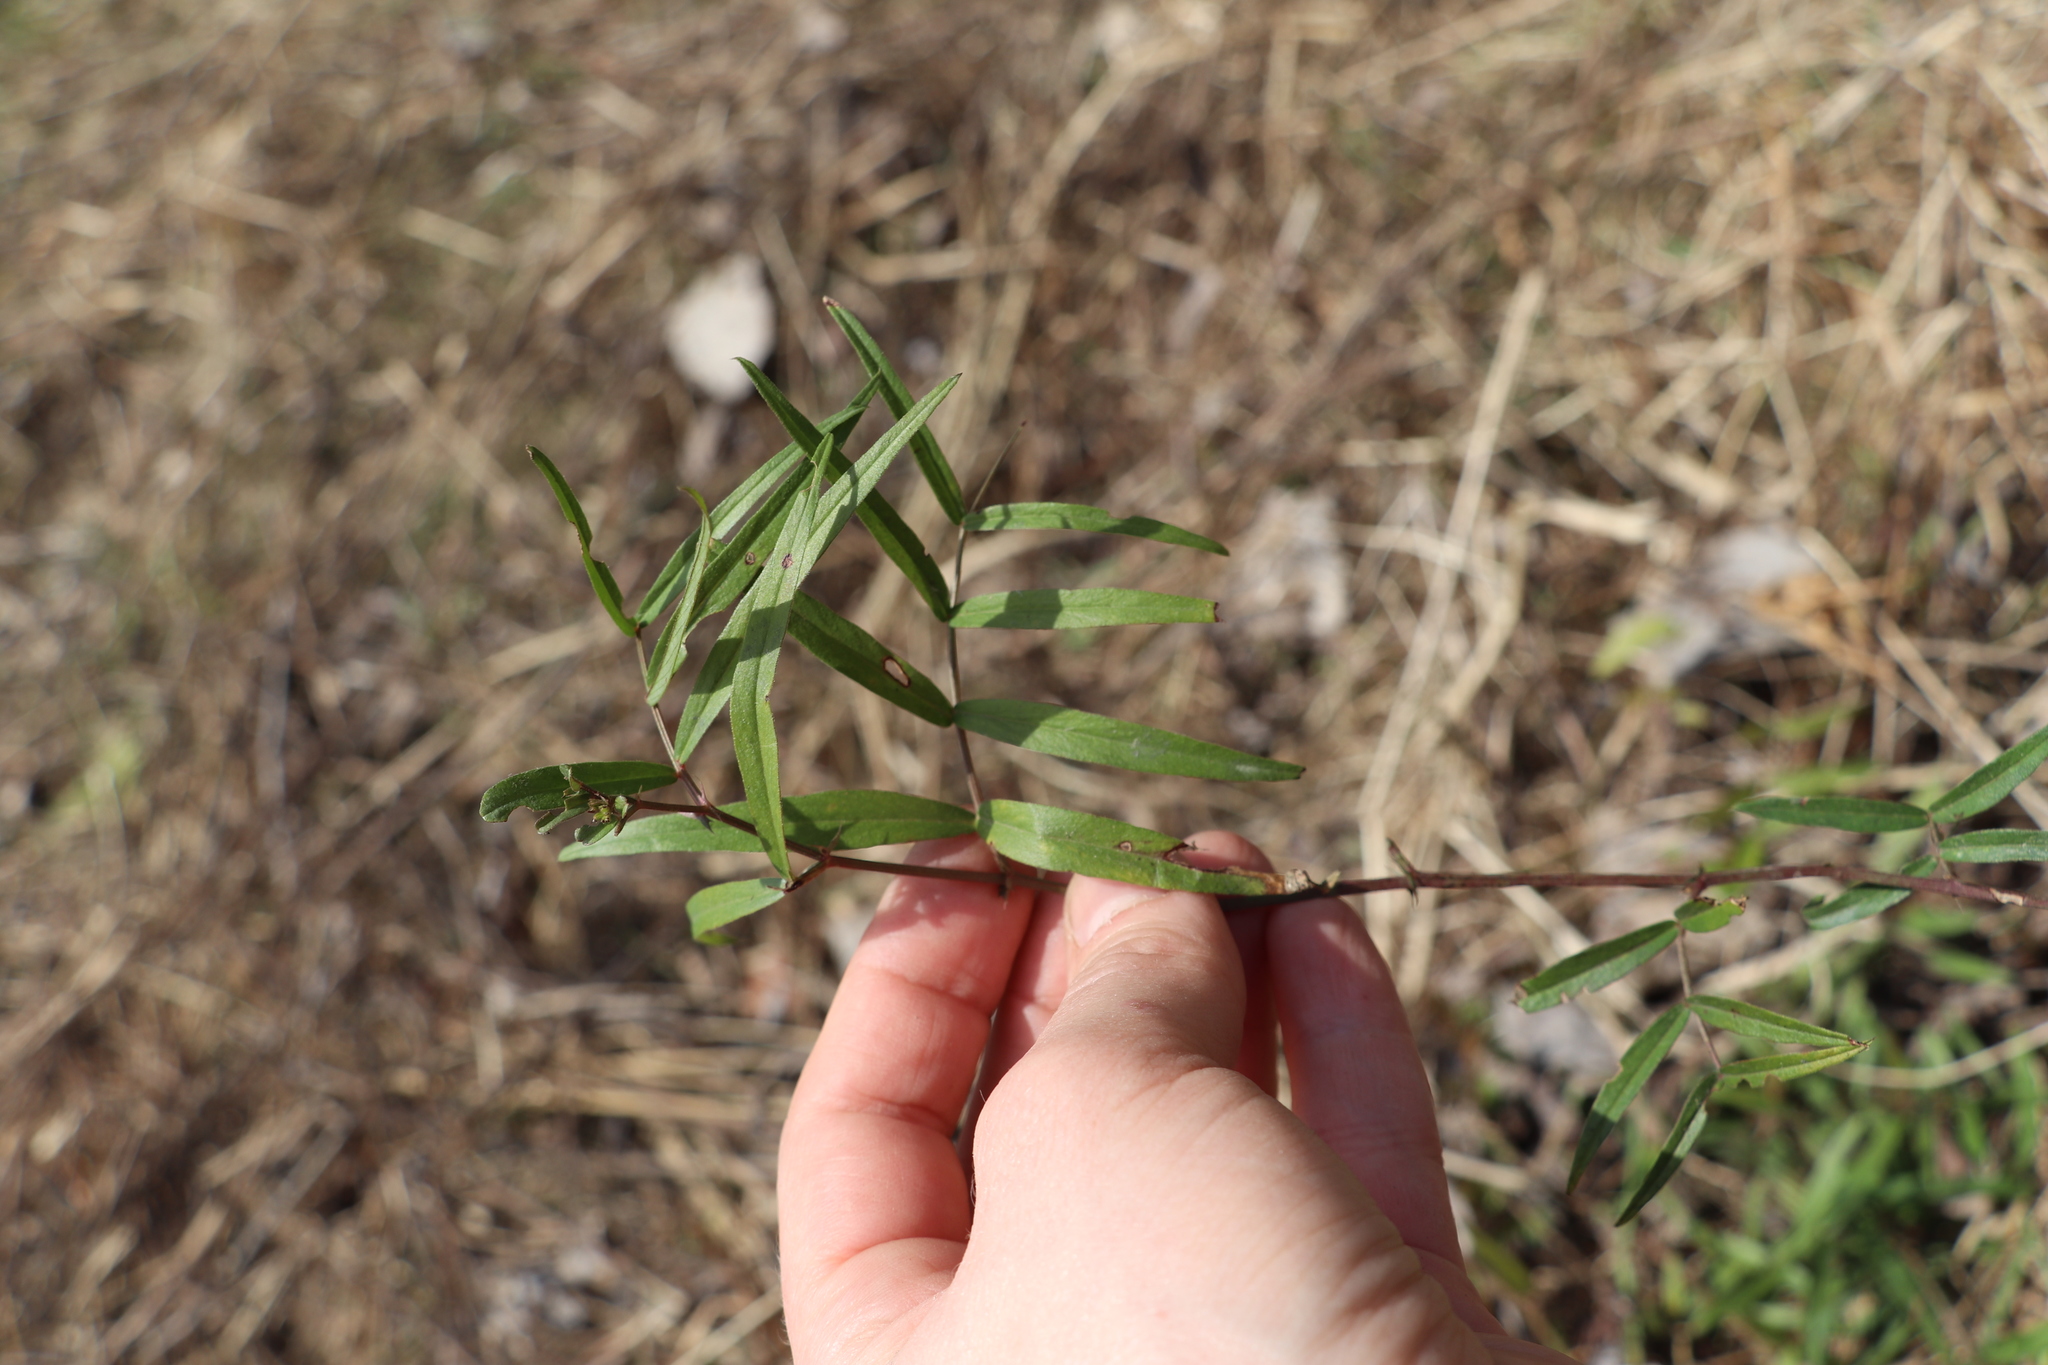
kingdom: Plantae
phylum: Tracheophyta
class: Magnoliopsida
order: Fabales
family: Fabaceae
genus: Vicia
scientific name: Vicia sepium
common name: Bush vetch
